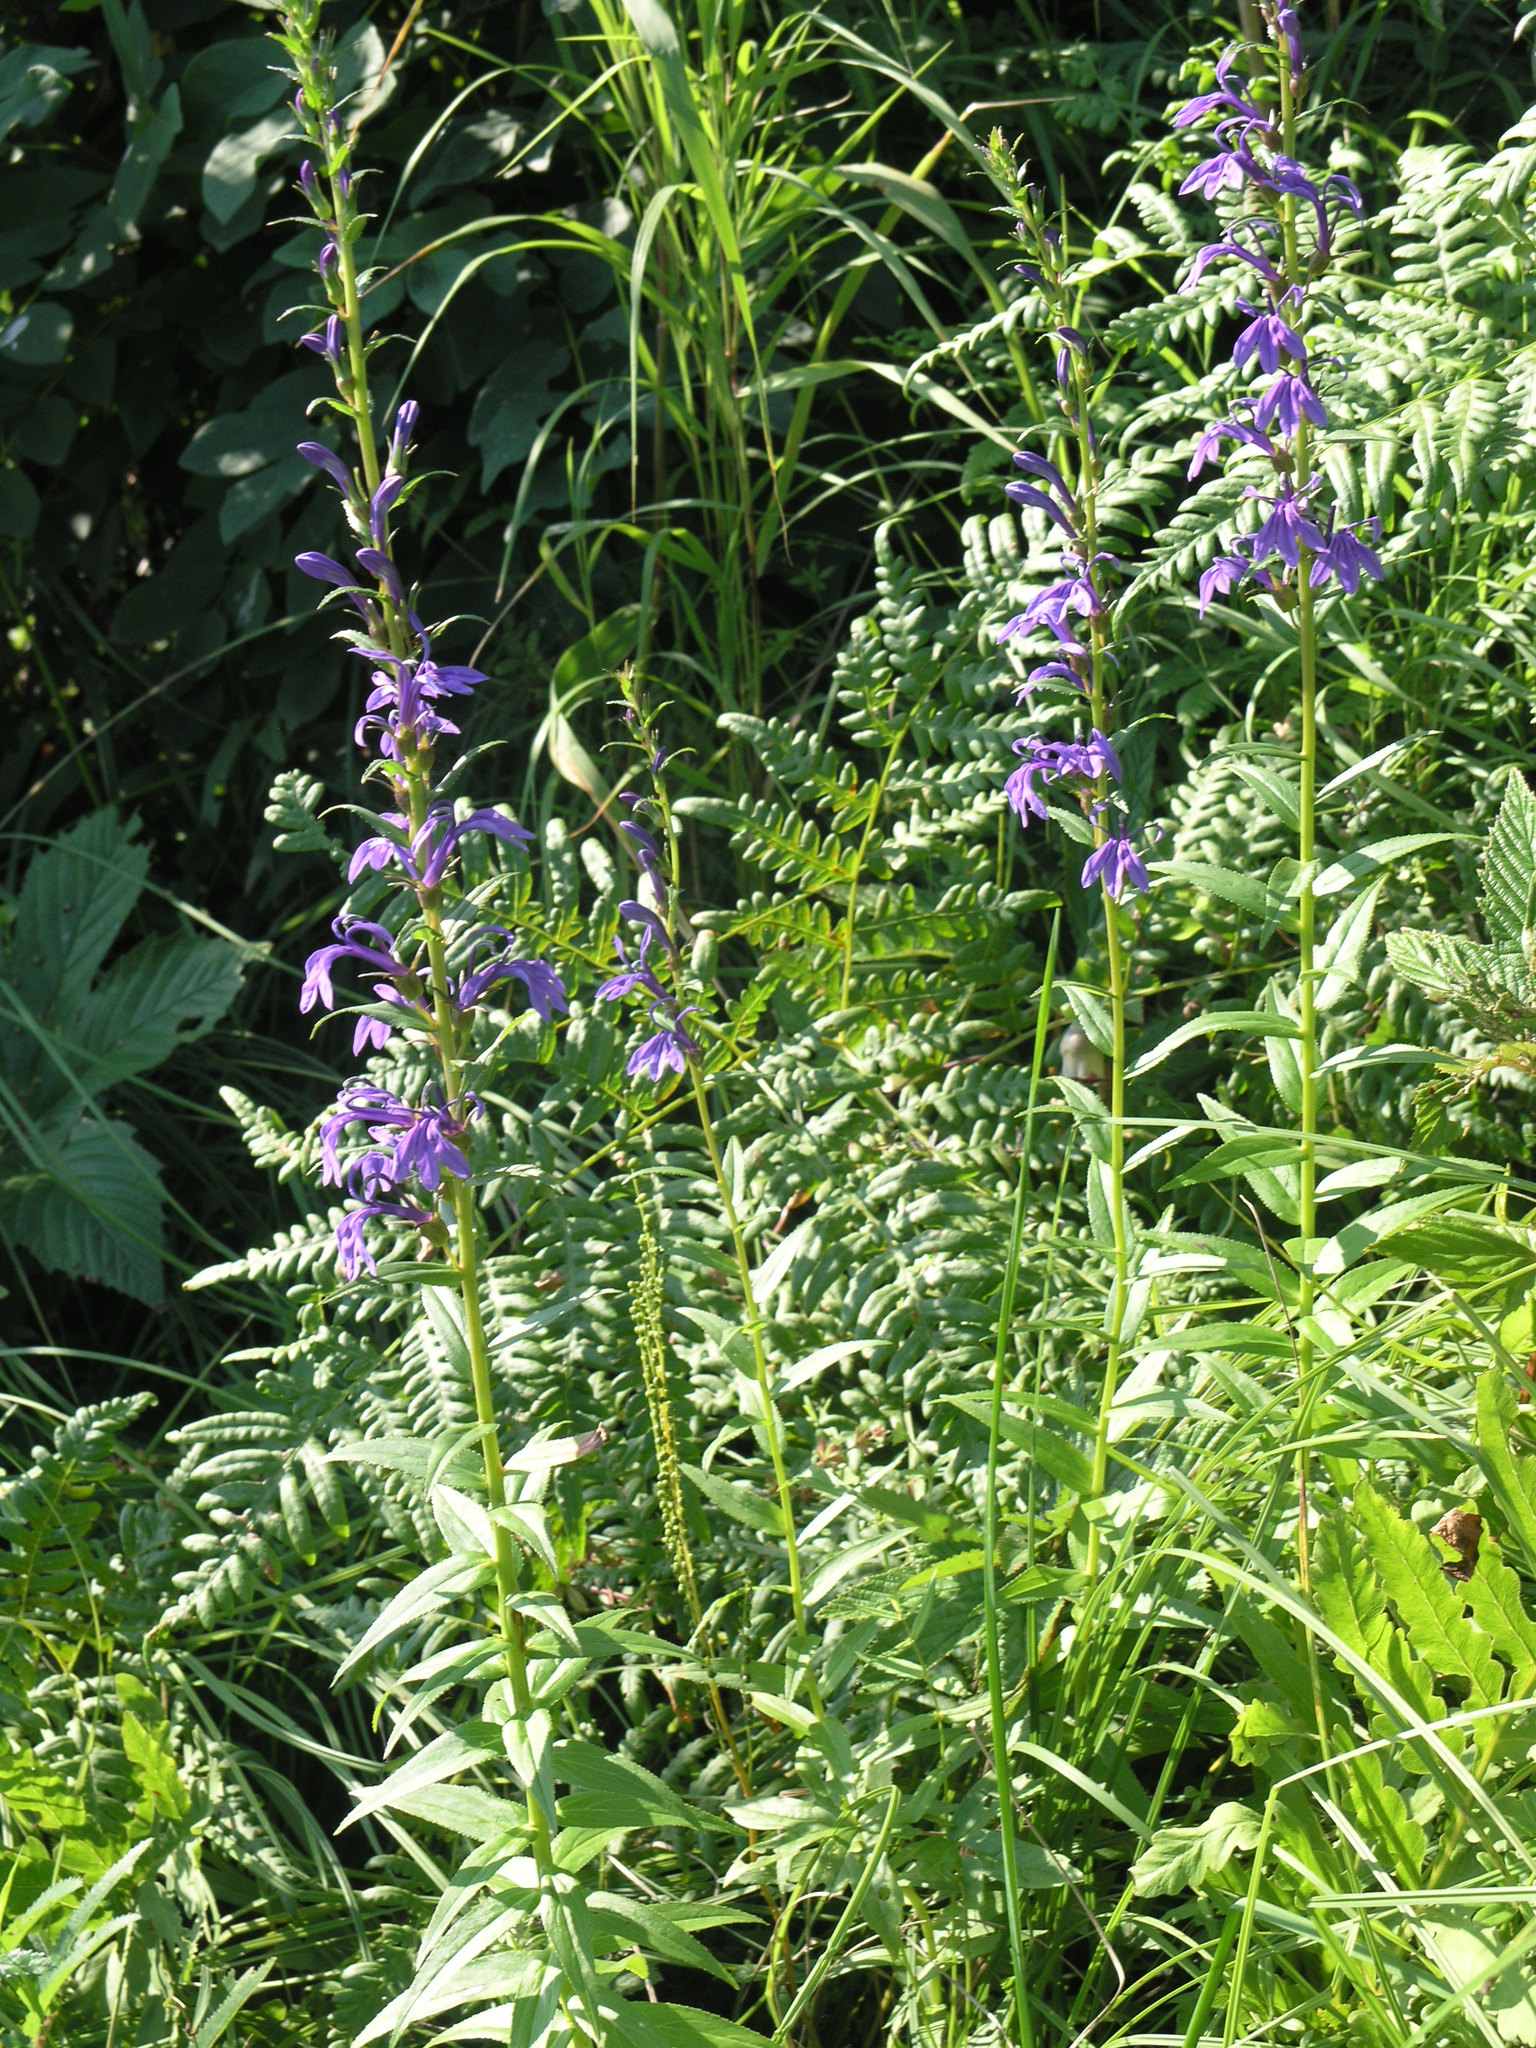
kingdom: Plantae
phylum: Tracheophyta
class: Magnoliopsida
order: Asterales
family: Campanulaceae
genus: Lobelia
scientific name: Lobelia sessilifolia
